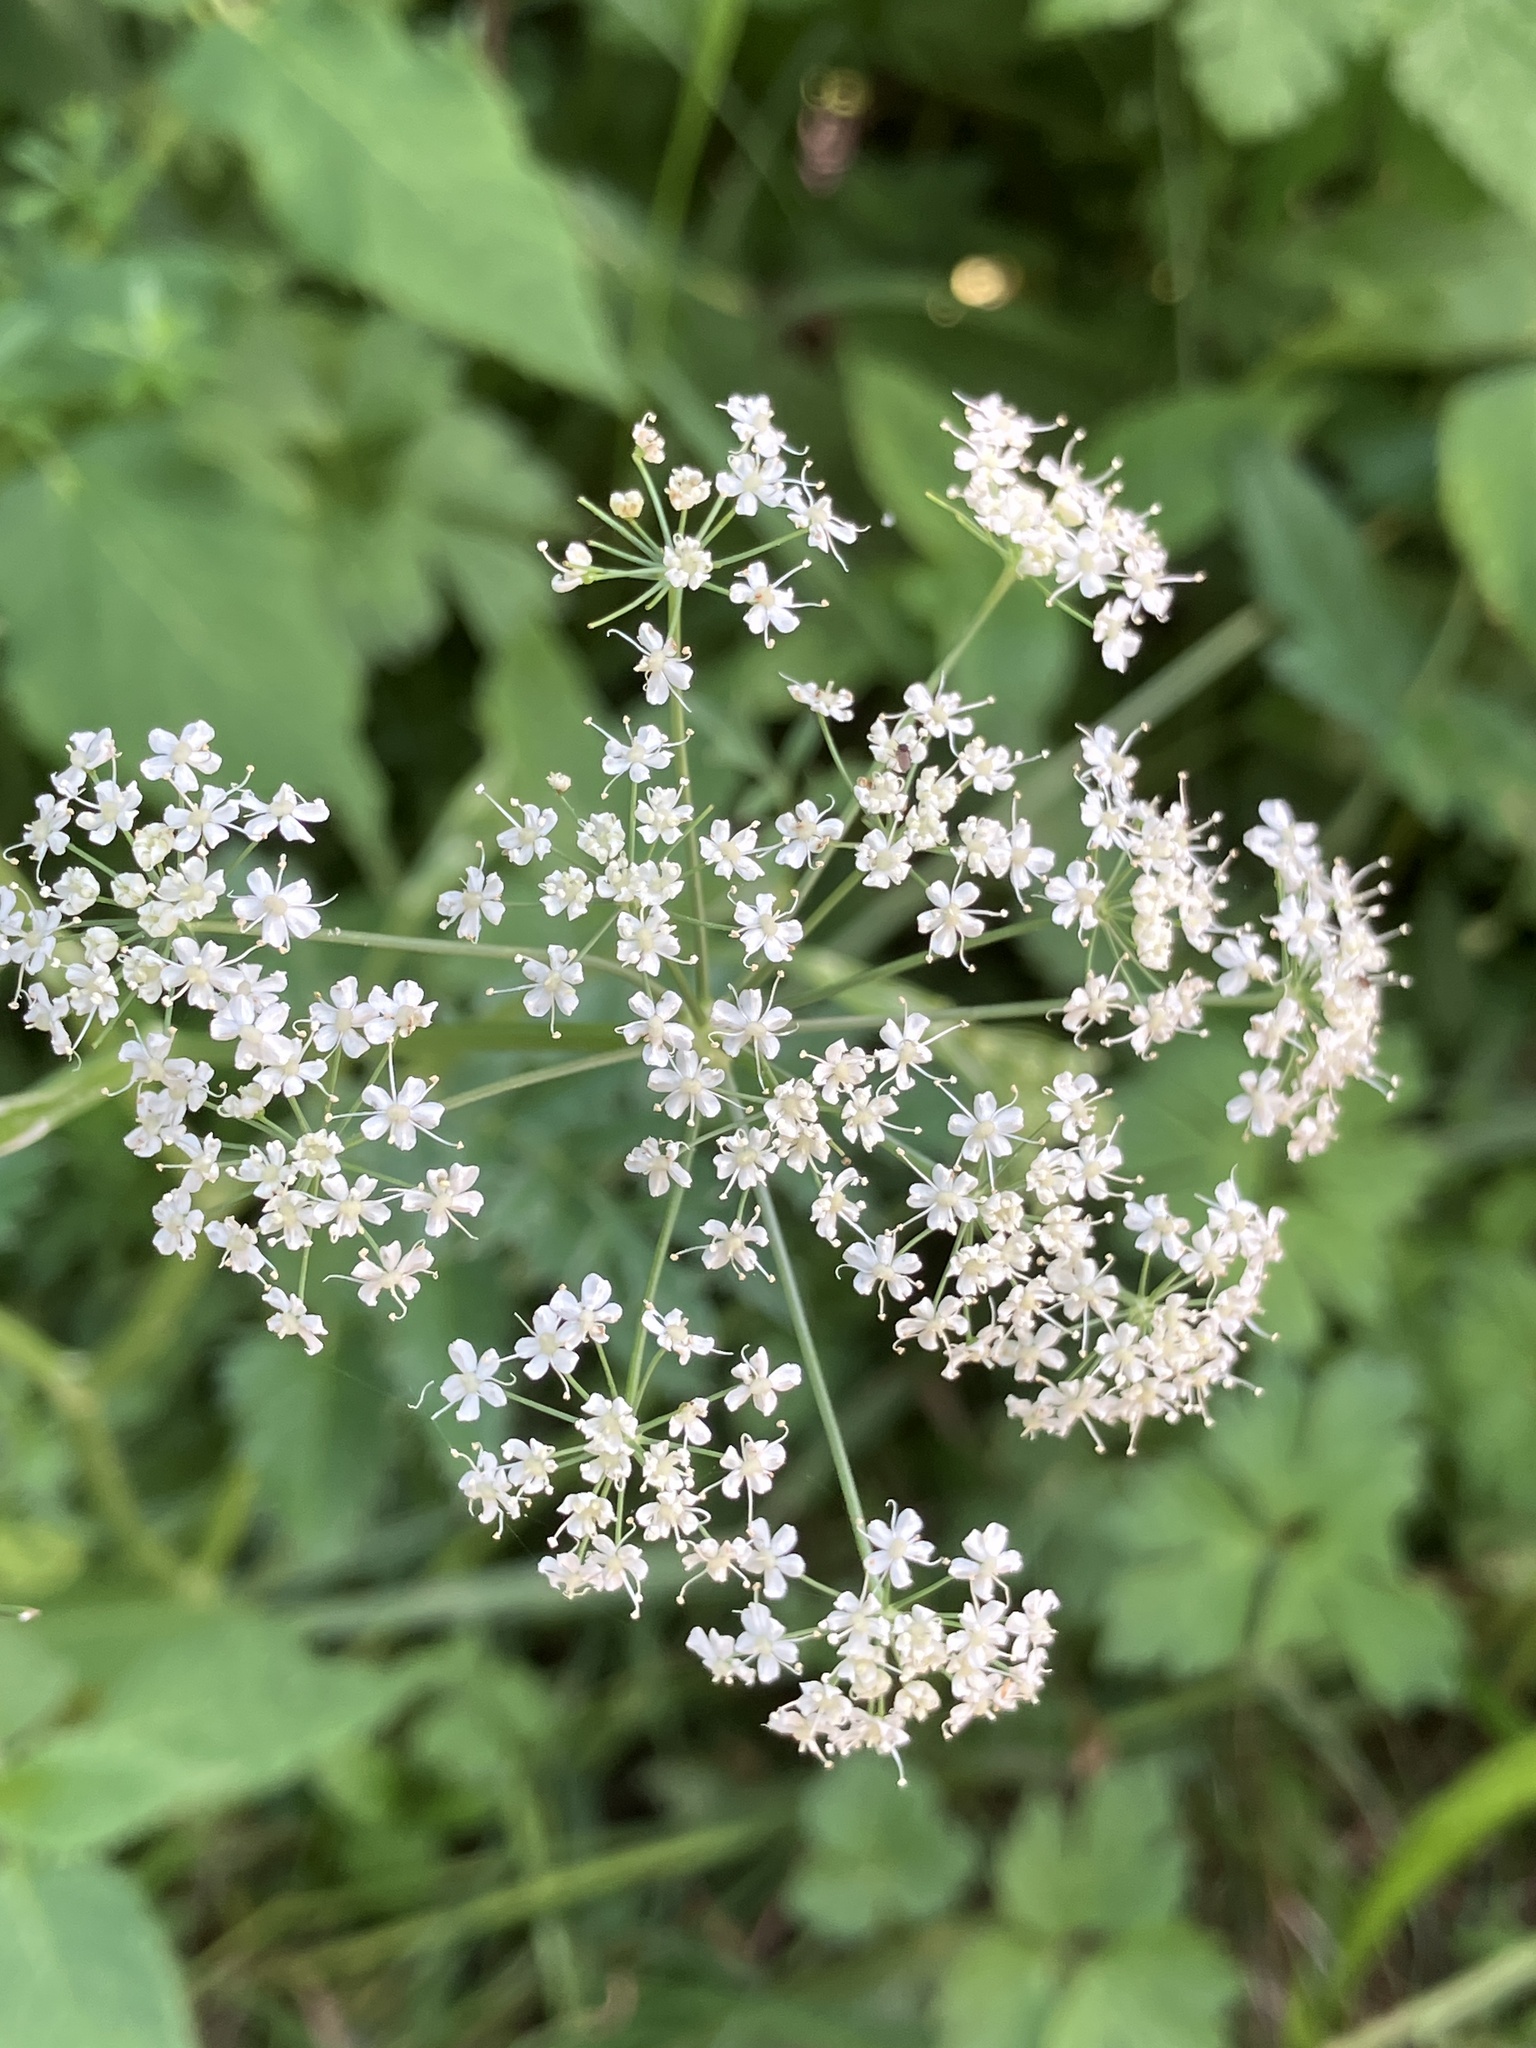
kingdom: Plantae
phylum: Tracheophyta
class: Magnoliopsida
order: Apiales
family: Apiaceae
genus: Pimpinella
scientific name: Pimpinella major
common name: Greater burnet-saxifrage
